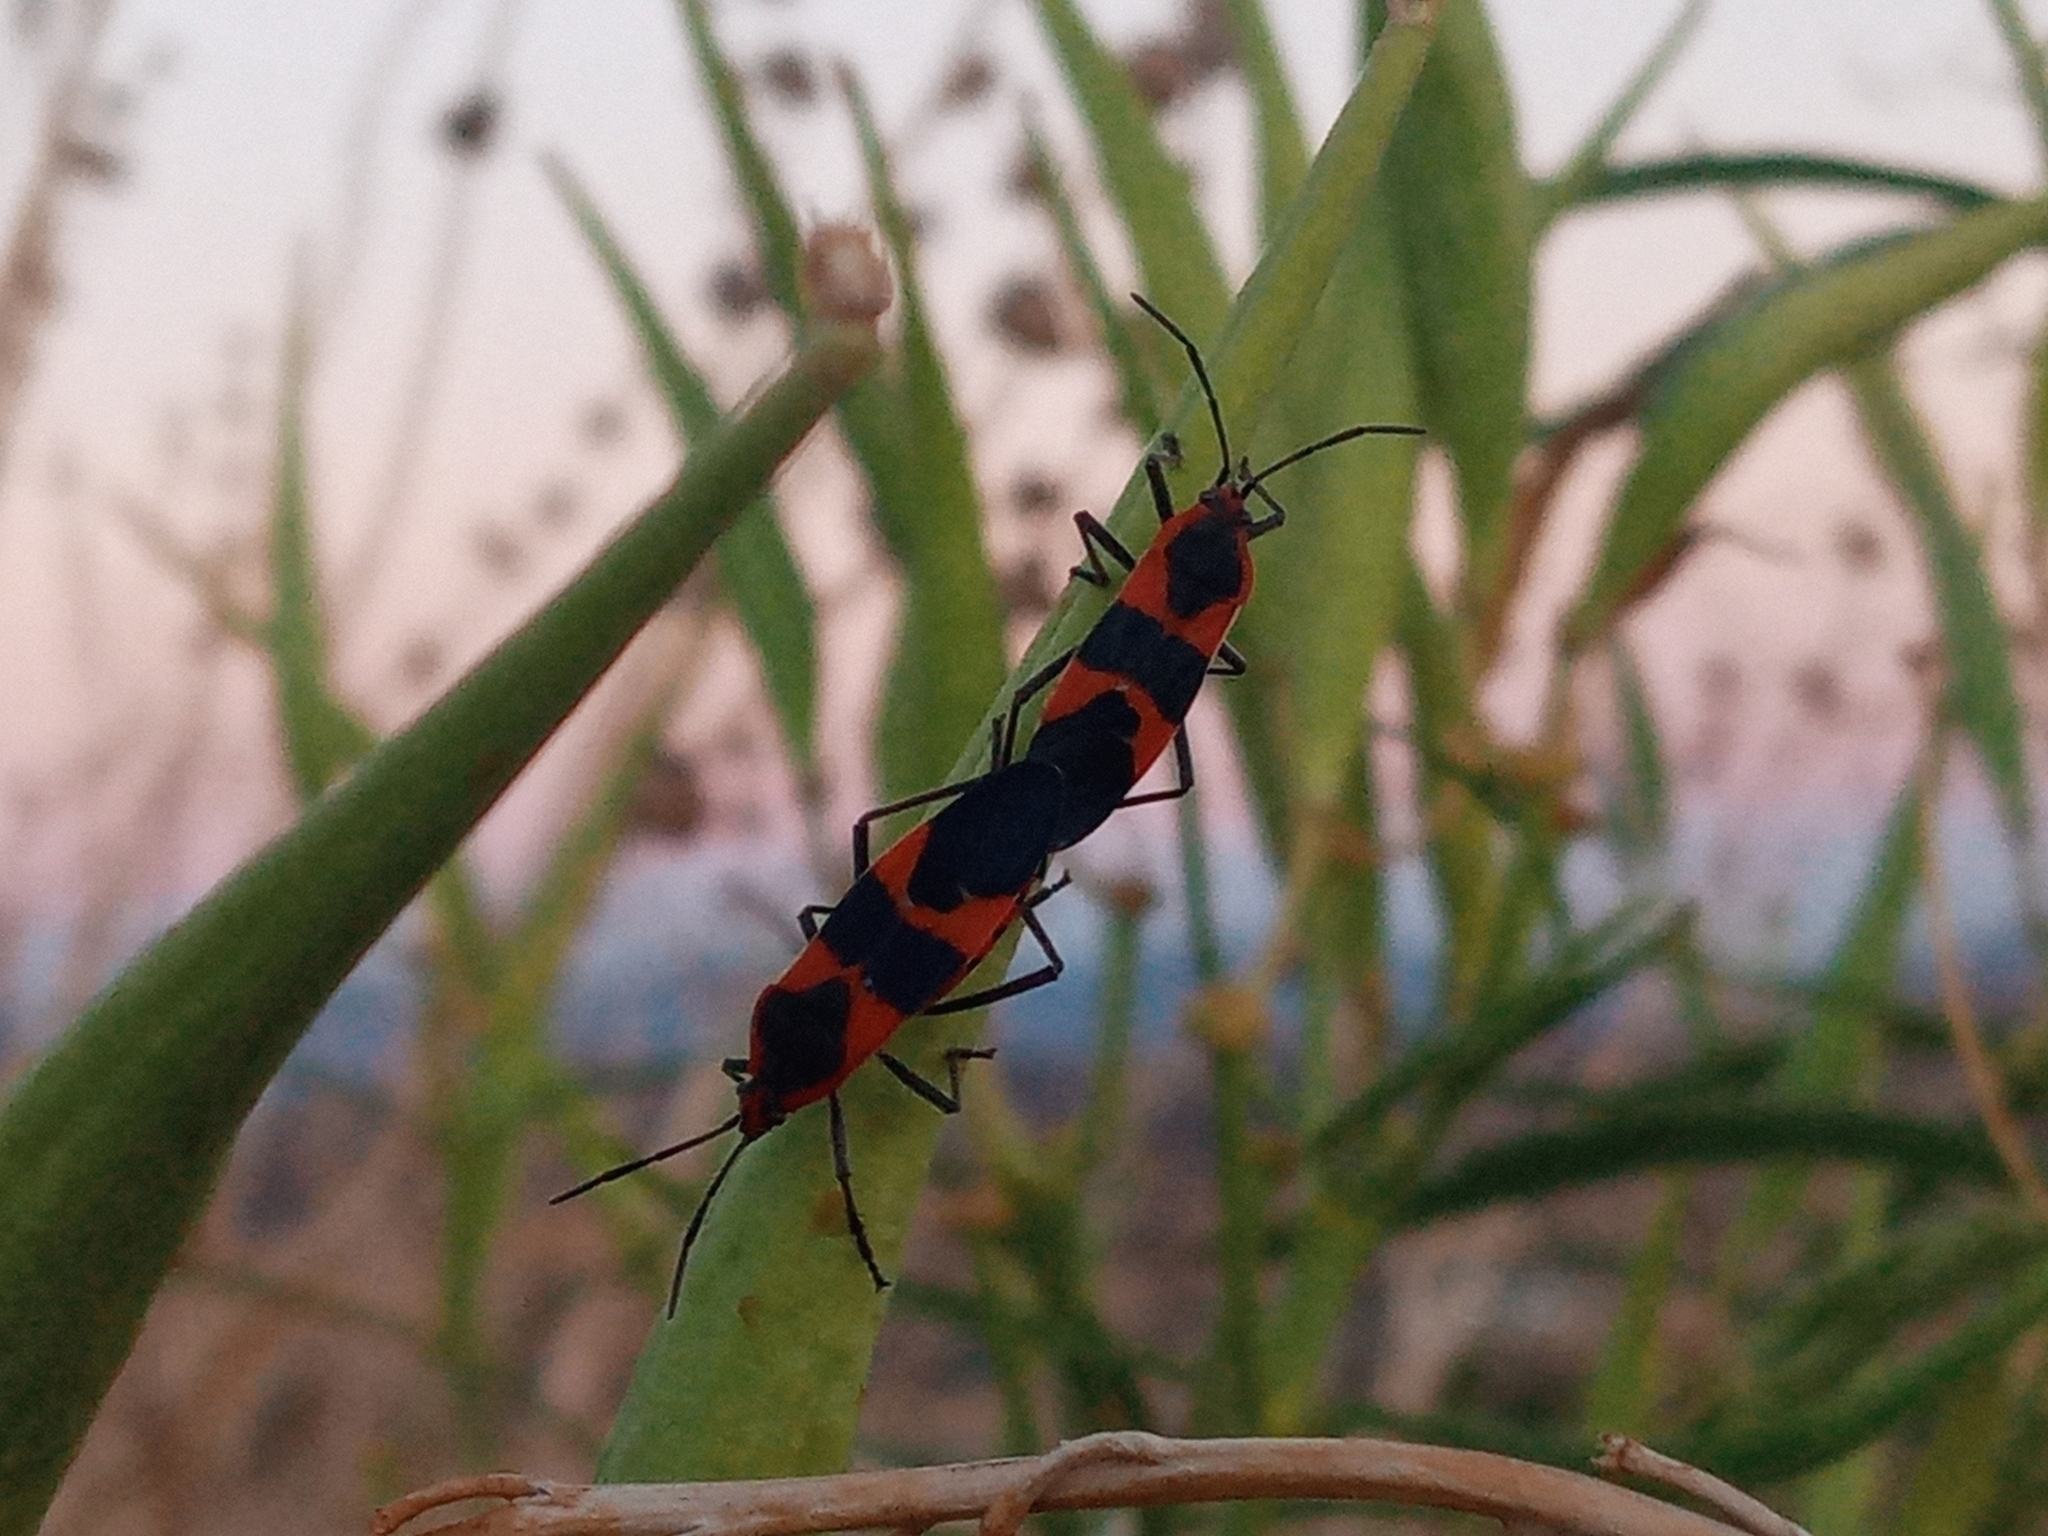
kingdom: Animalia
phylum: Arthropoda
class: Insecta
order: Hemiptera
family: Lygaeidae
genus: Oncopeltus
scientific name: Oncopeltus fasciatus
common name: Large milkweed bug
